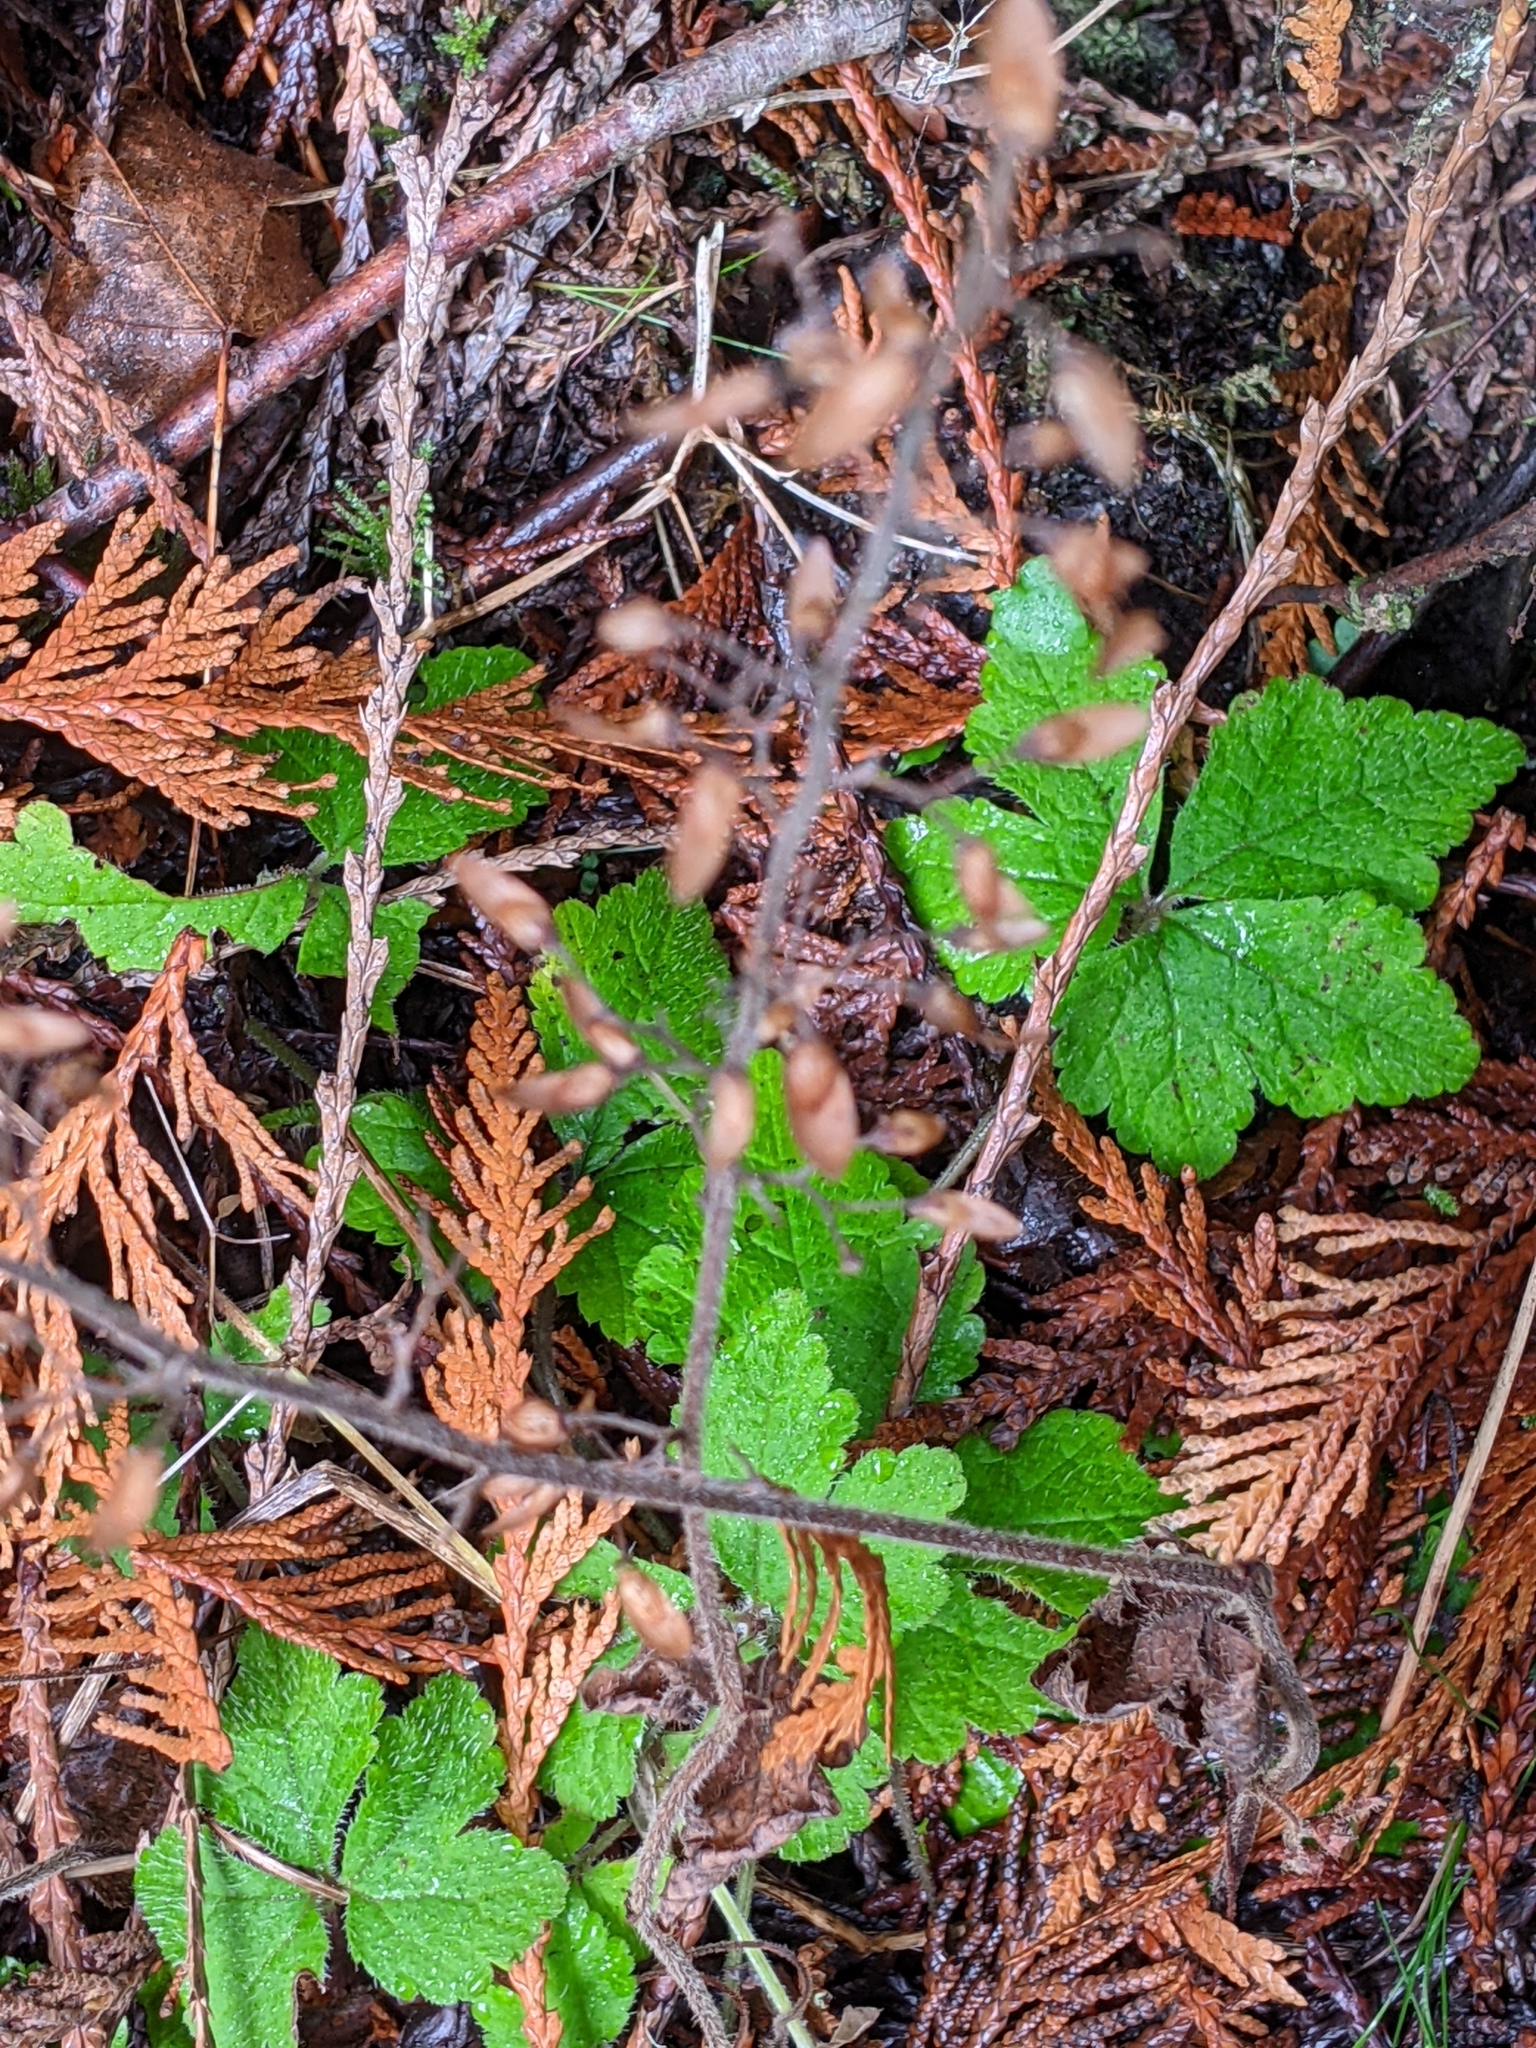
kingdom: Plantae
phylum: Tracheophyta
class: Magnoliopsida
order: Saxifragales
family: Saxifragaceae
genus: Tiarella
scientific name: Tiarella trifoliata
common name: Sugar-scoop
